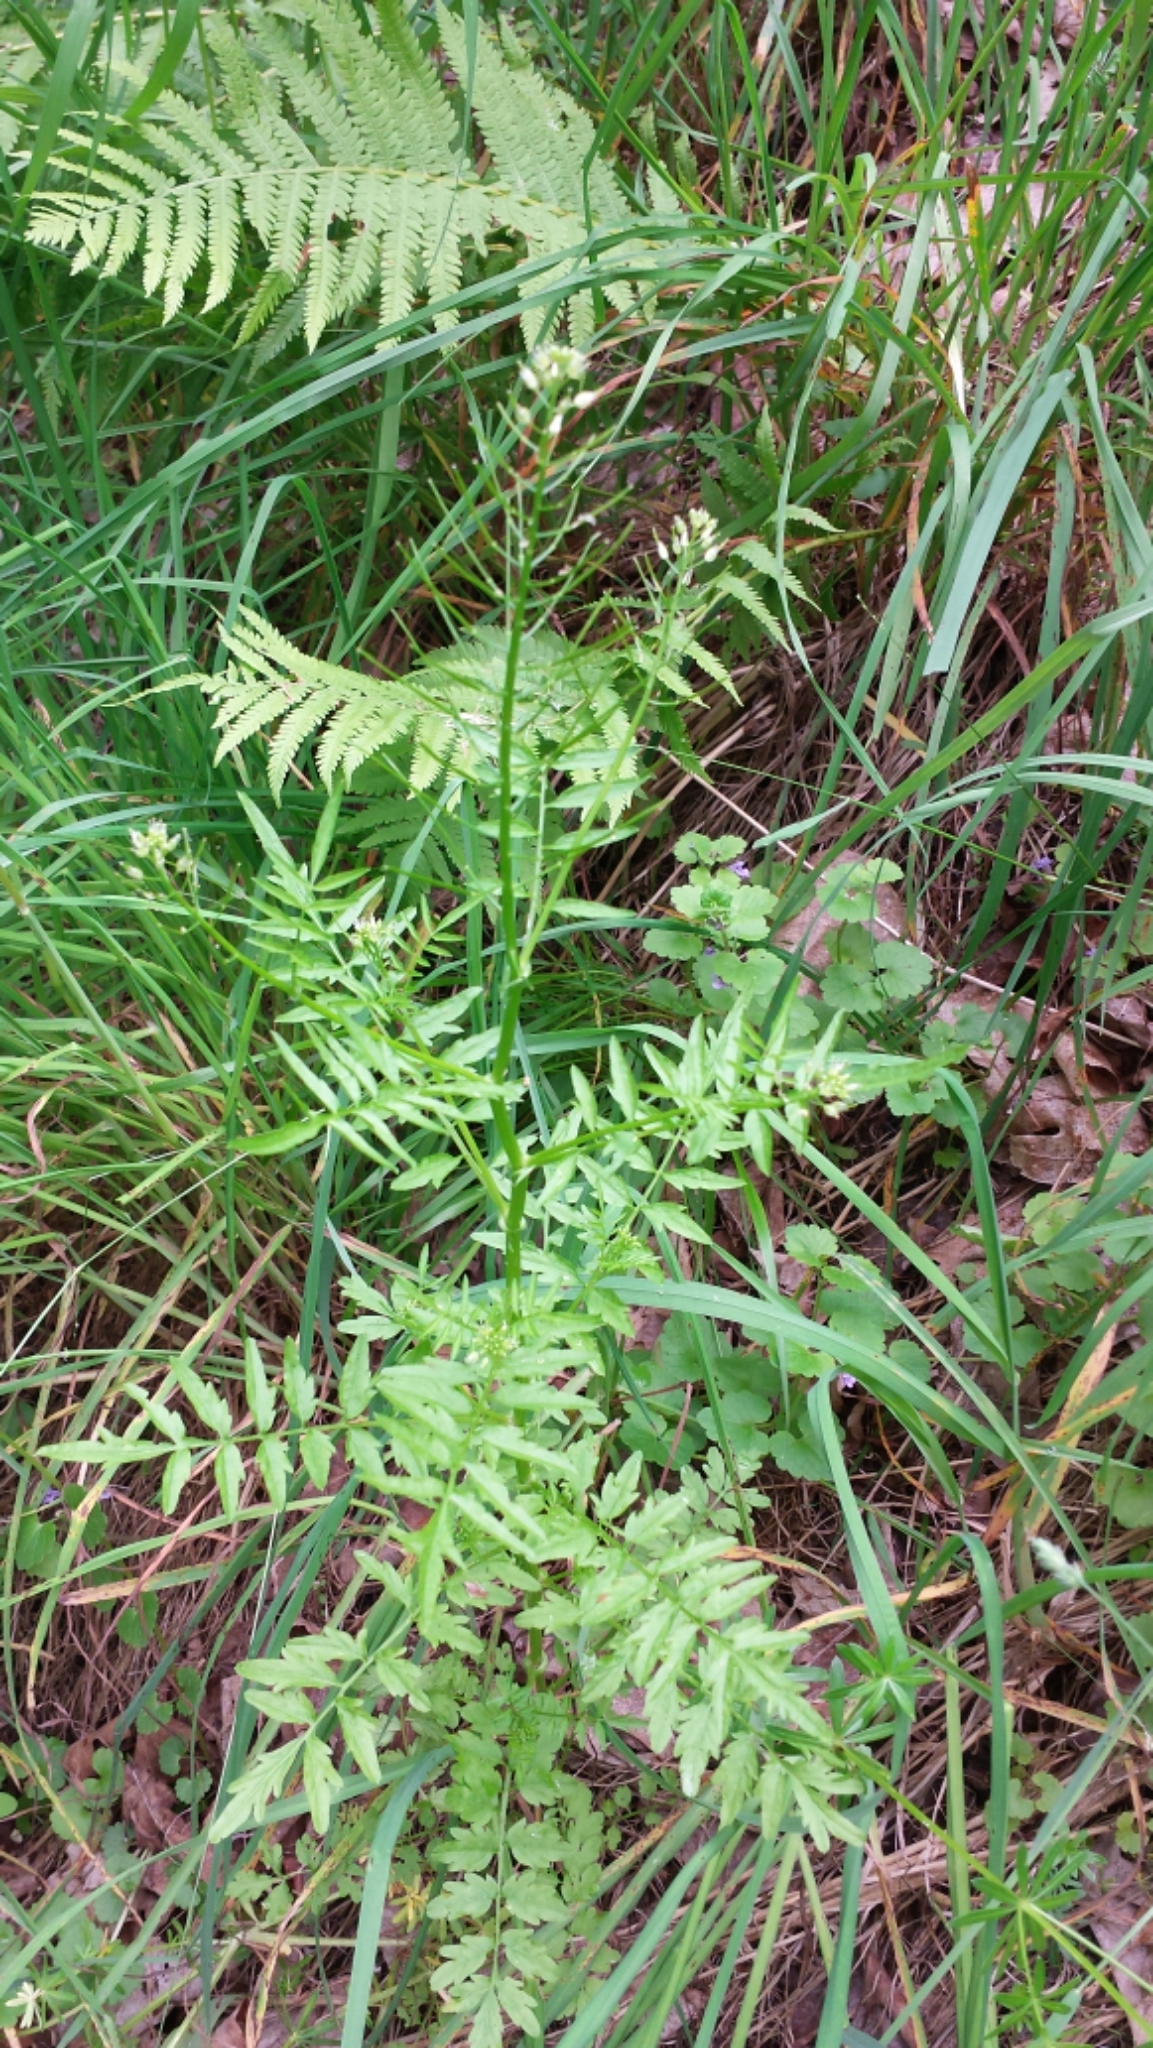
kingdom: Plantae
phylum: Tracheophyta
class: Magnoliopsida
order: Brassicales
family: Brassicaceae
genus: Cardamine
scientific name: Cardamine impatiens
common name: Narrow-leaved bitter-cress
